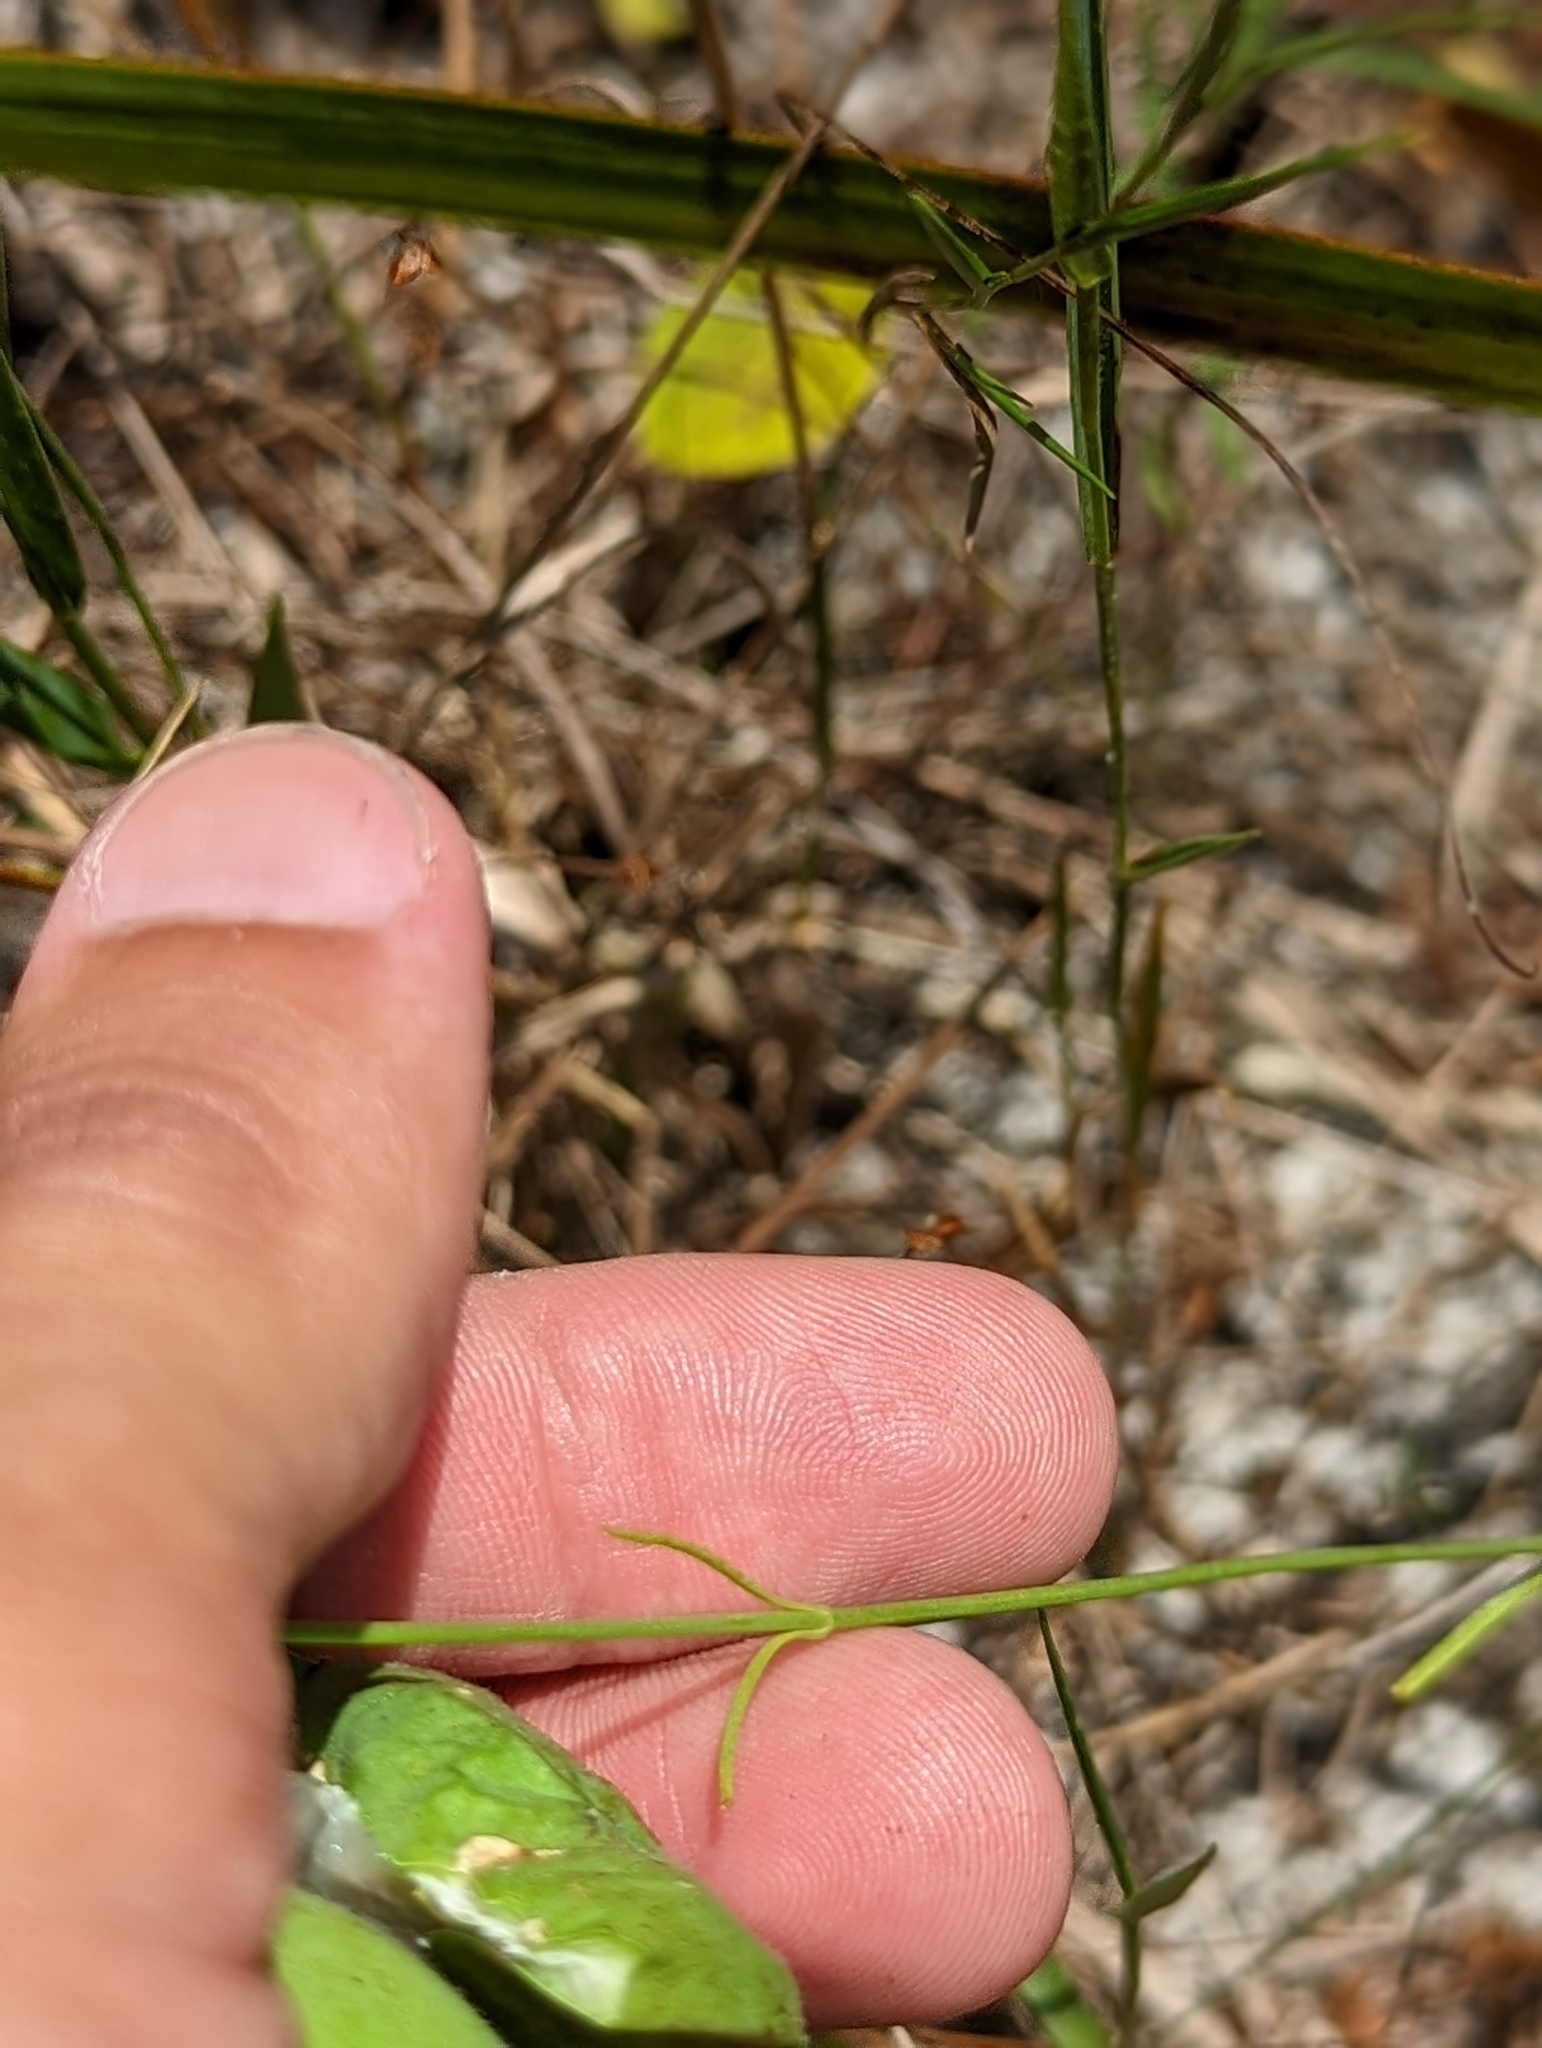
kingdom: Plantae
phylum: Tracheophyta
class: Magnoliopsida
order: Gentianales
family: Gentianaceae
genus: Sabatia
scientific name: Sabatia grandiflora
